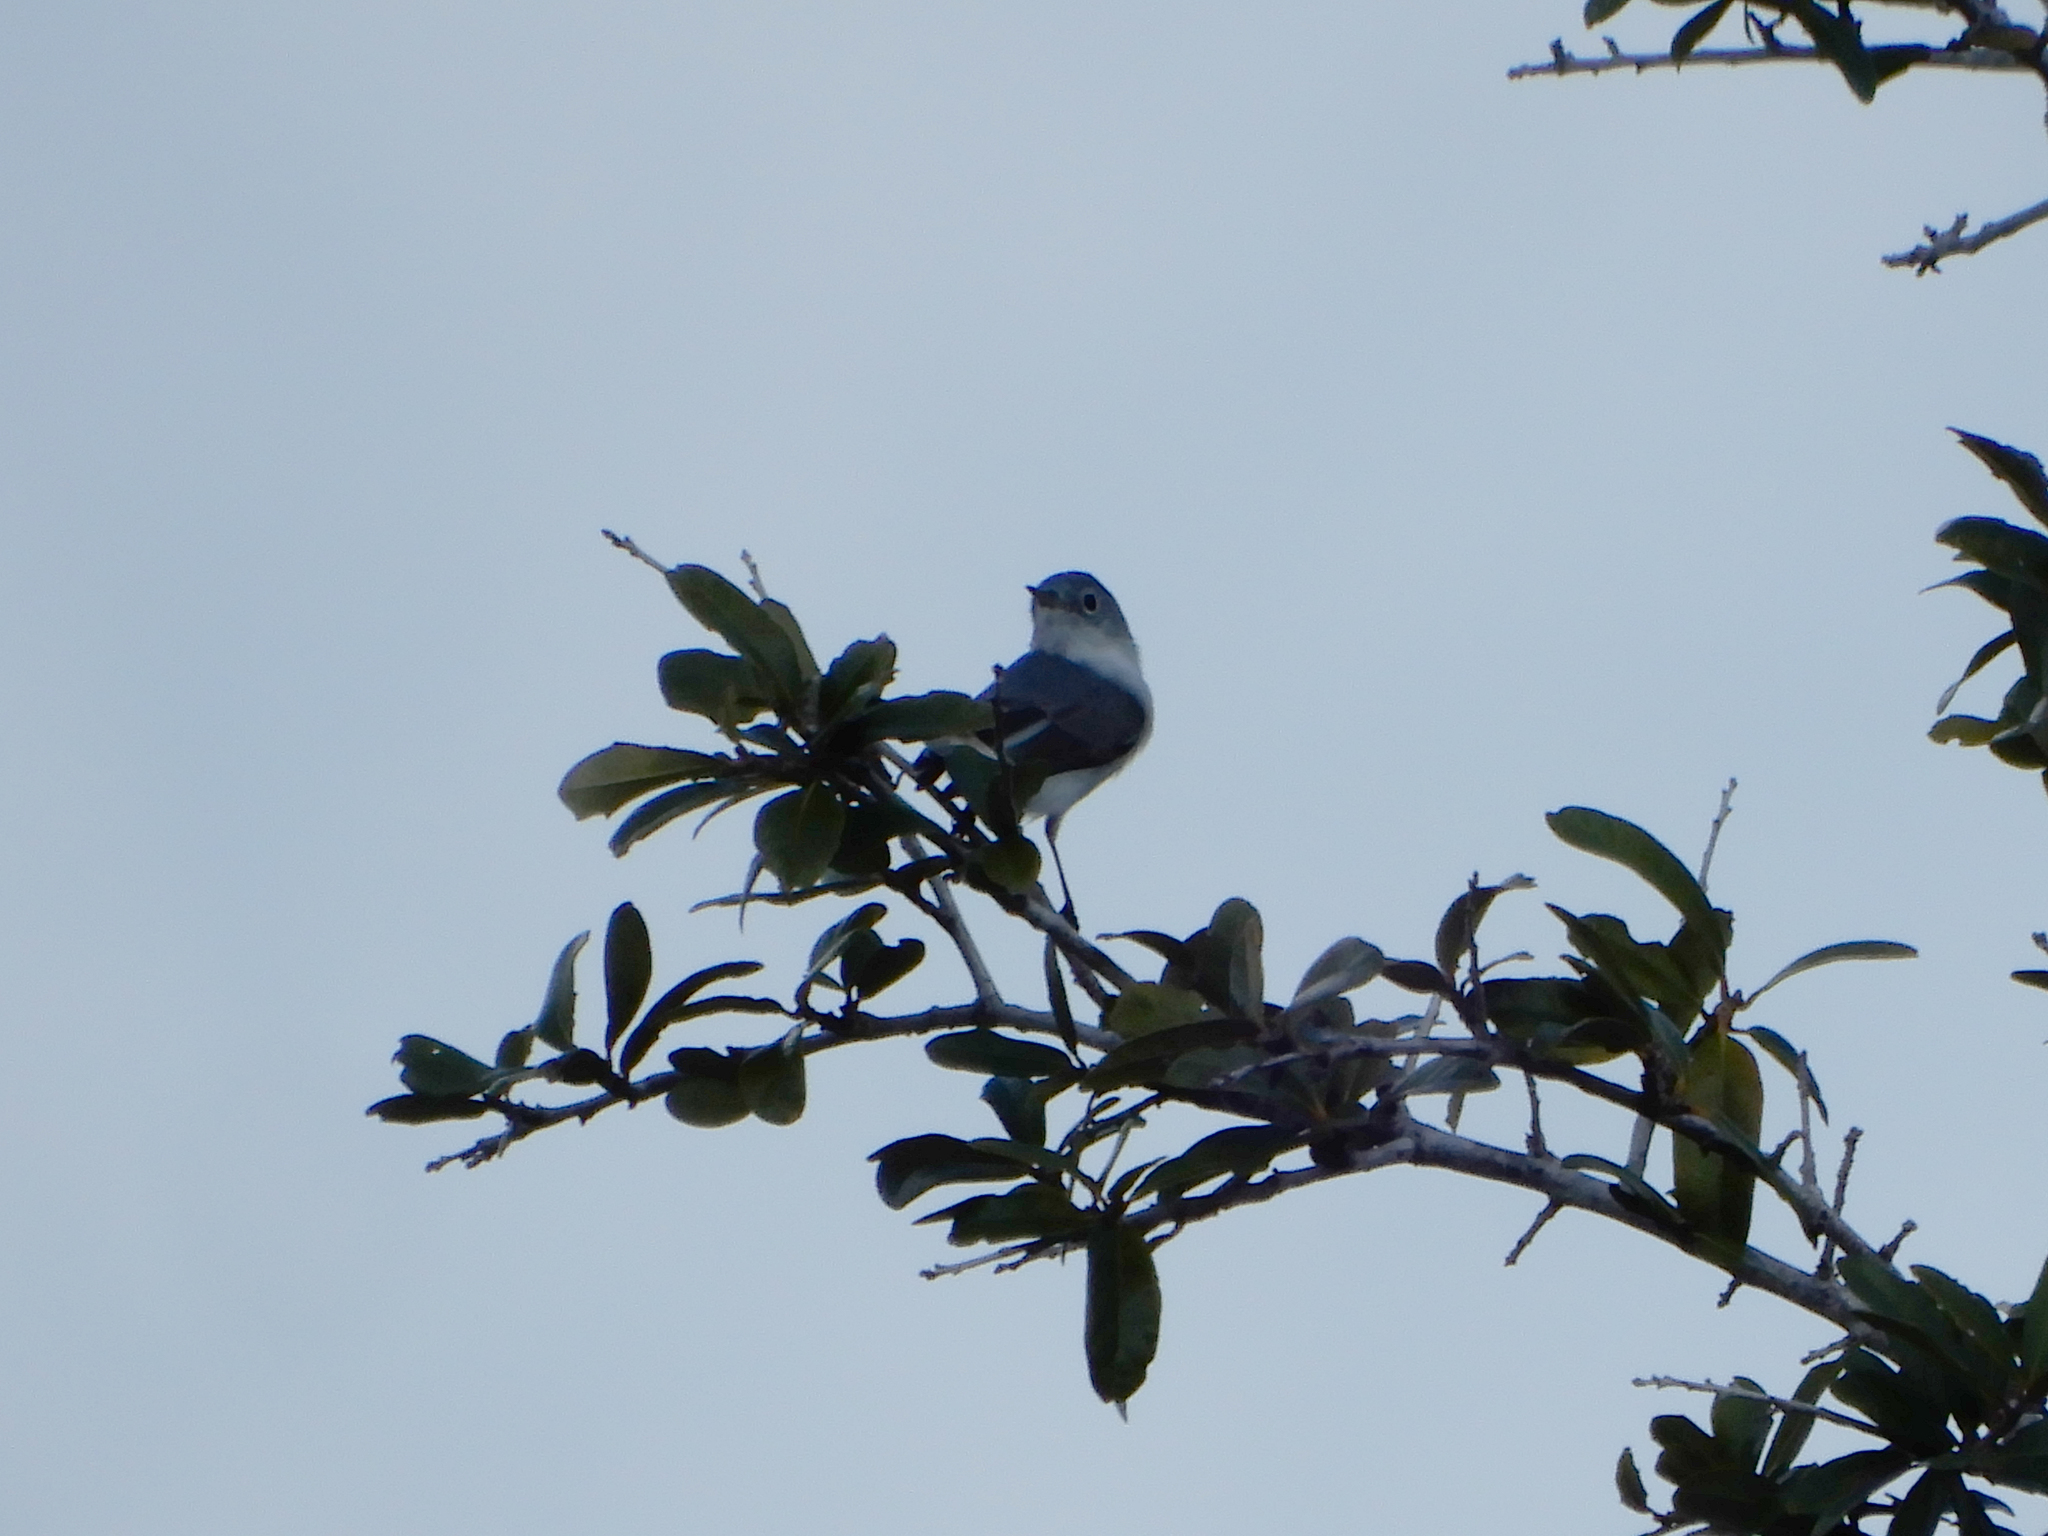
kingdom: Animalia
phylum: Chordata
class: Aves
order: Passeriformes
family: Polioptilidae
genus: Polioptila
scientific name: Polioptila caerulea
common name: Blue-gray gnatcatcher
